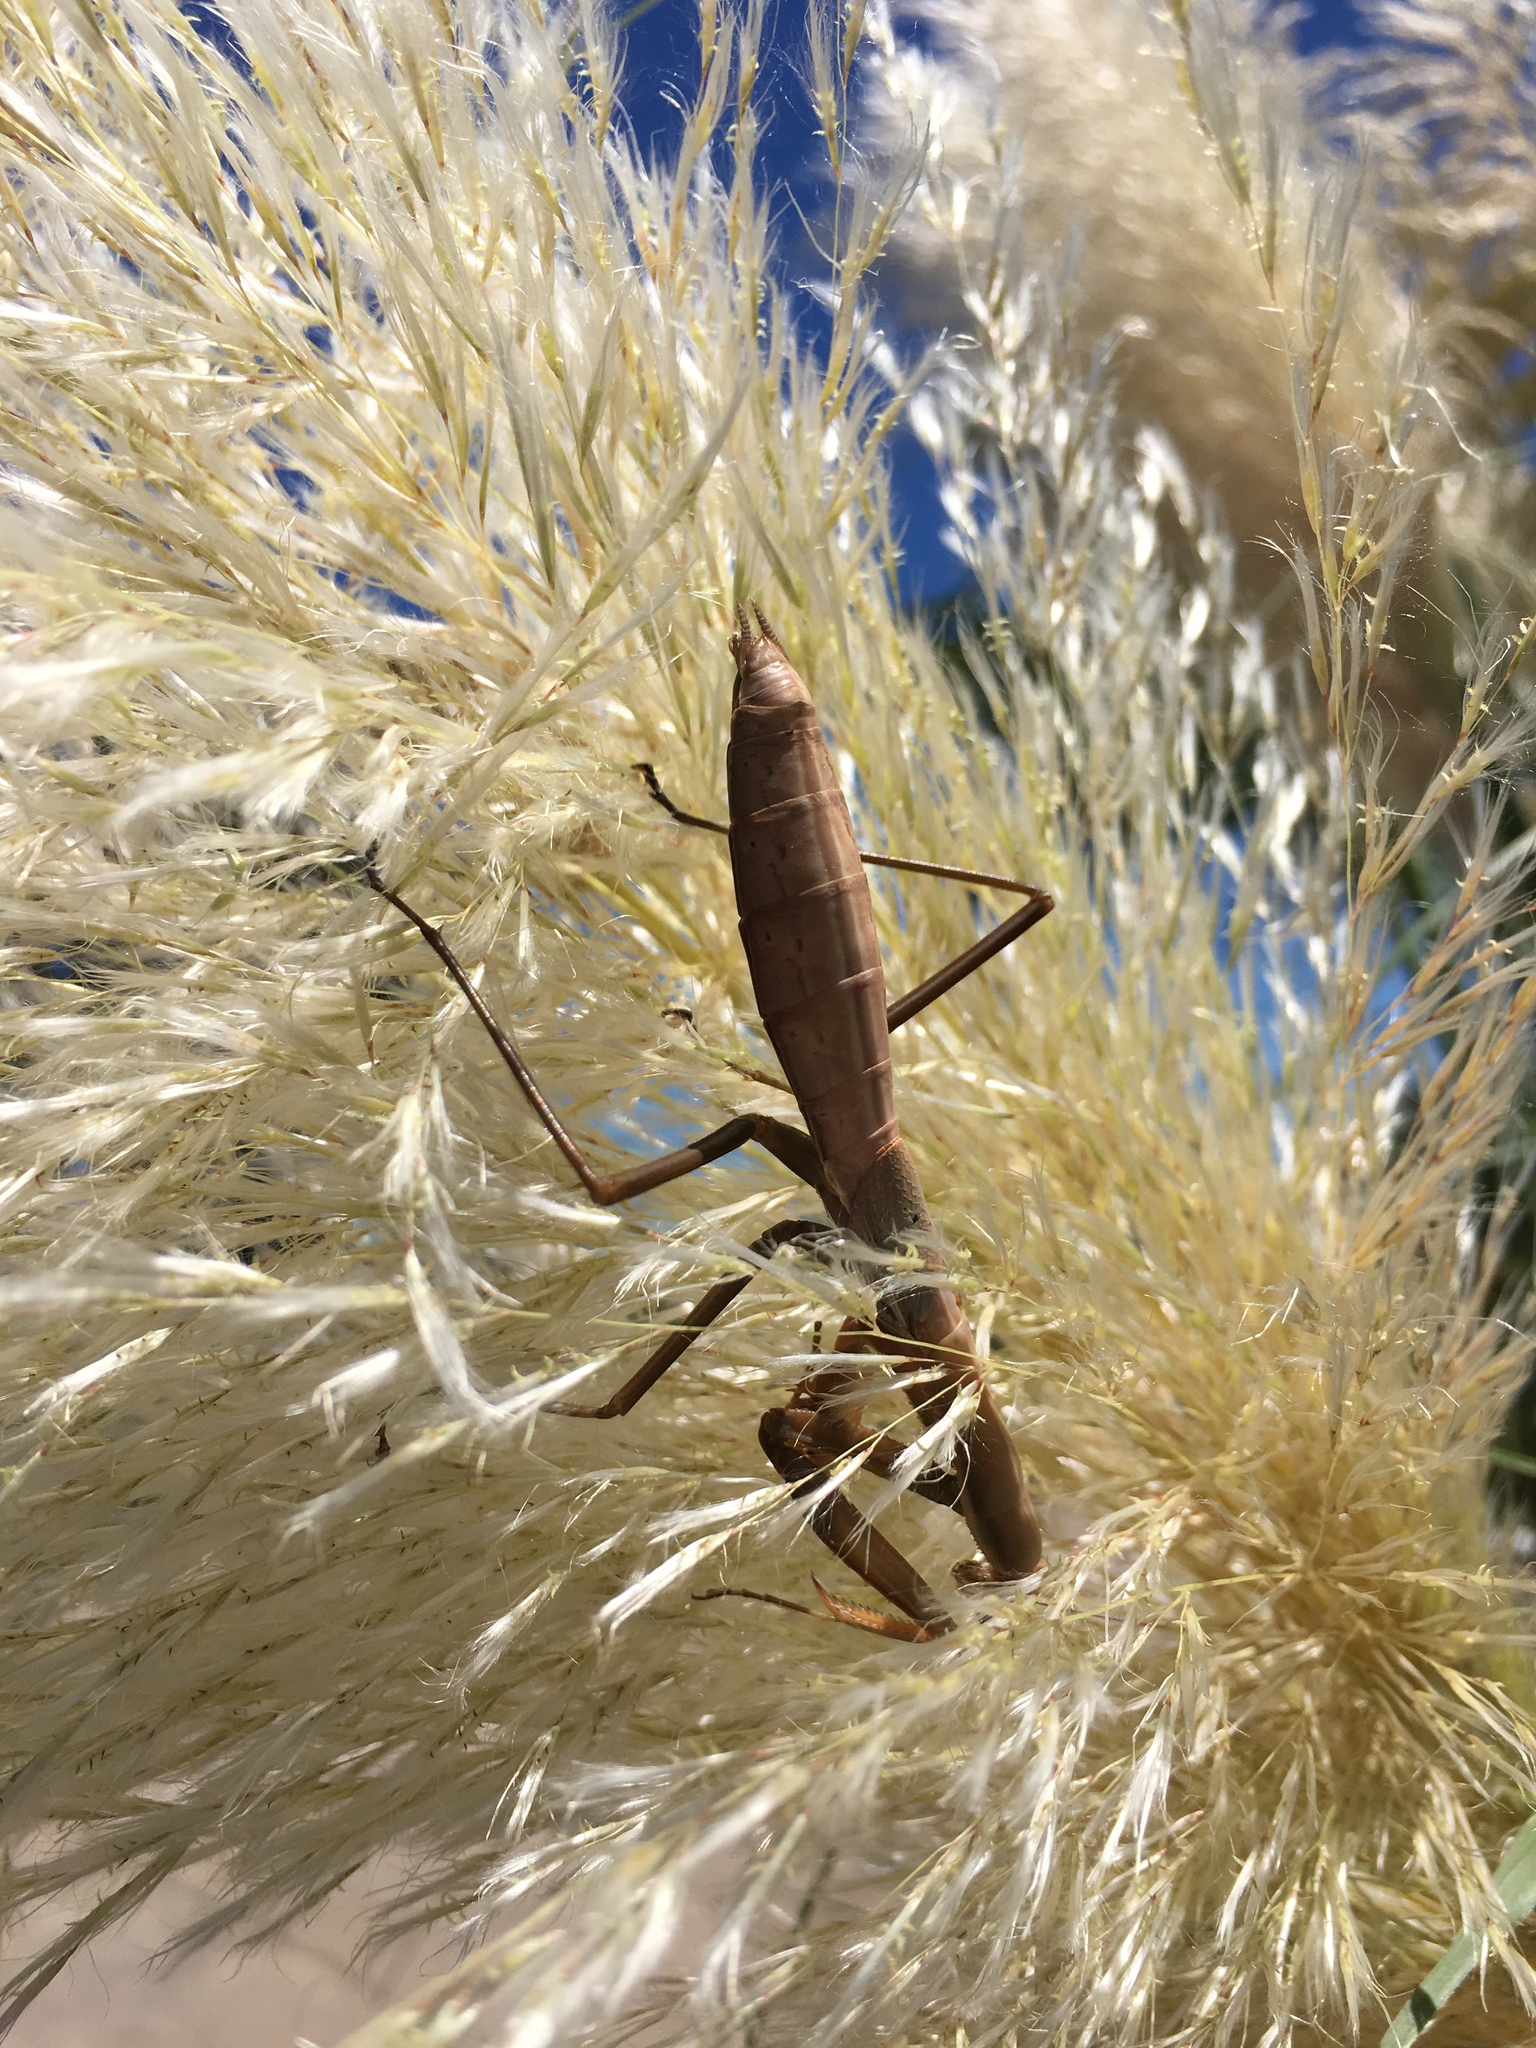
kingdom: Animalia
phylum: Arthropoda
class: Insecta
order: Mantodea
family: Coptopterygidae
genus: Coptopteryx
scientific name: Coptopteryx argentina
